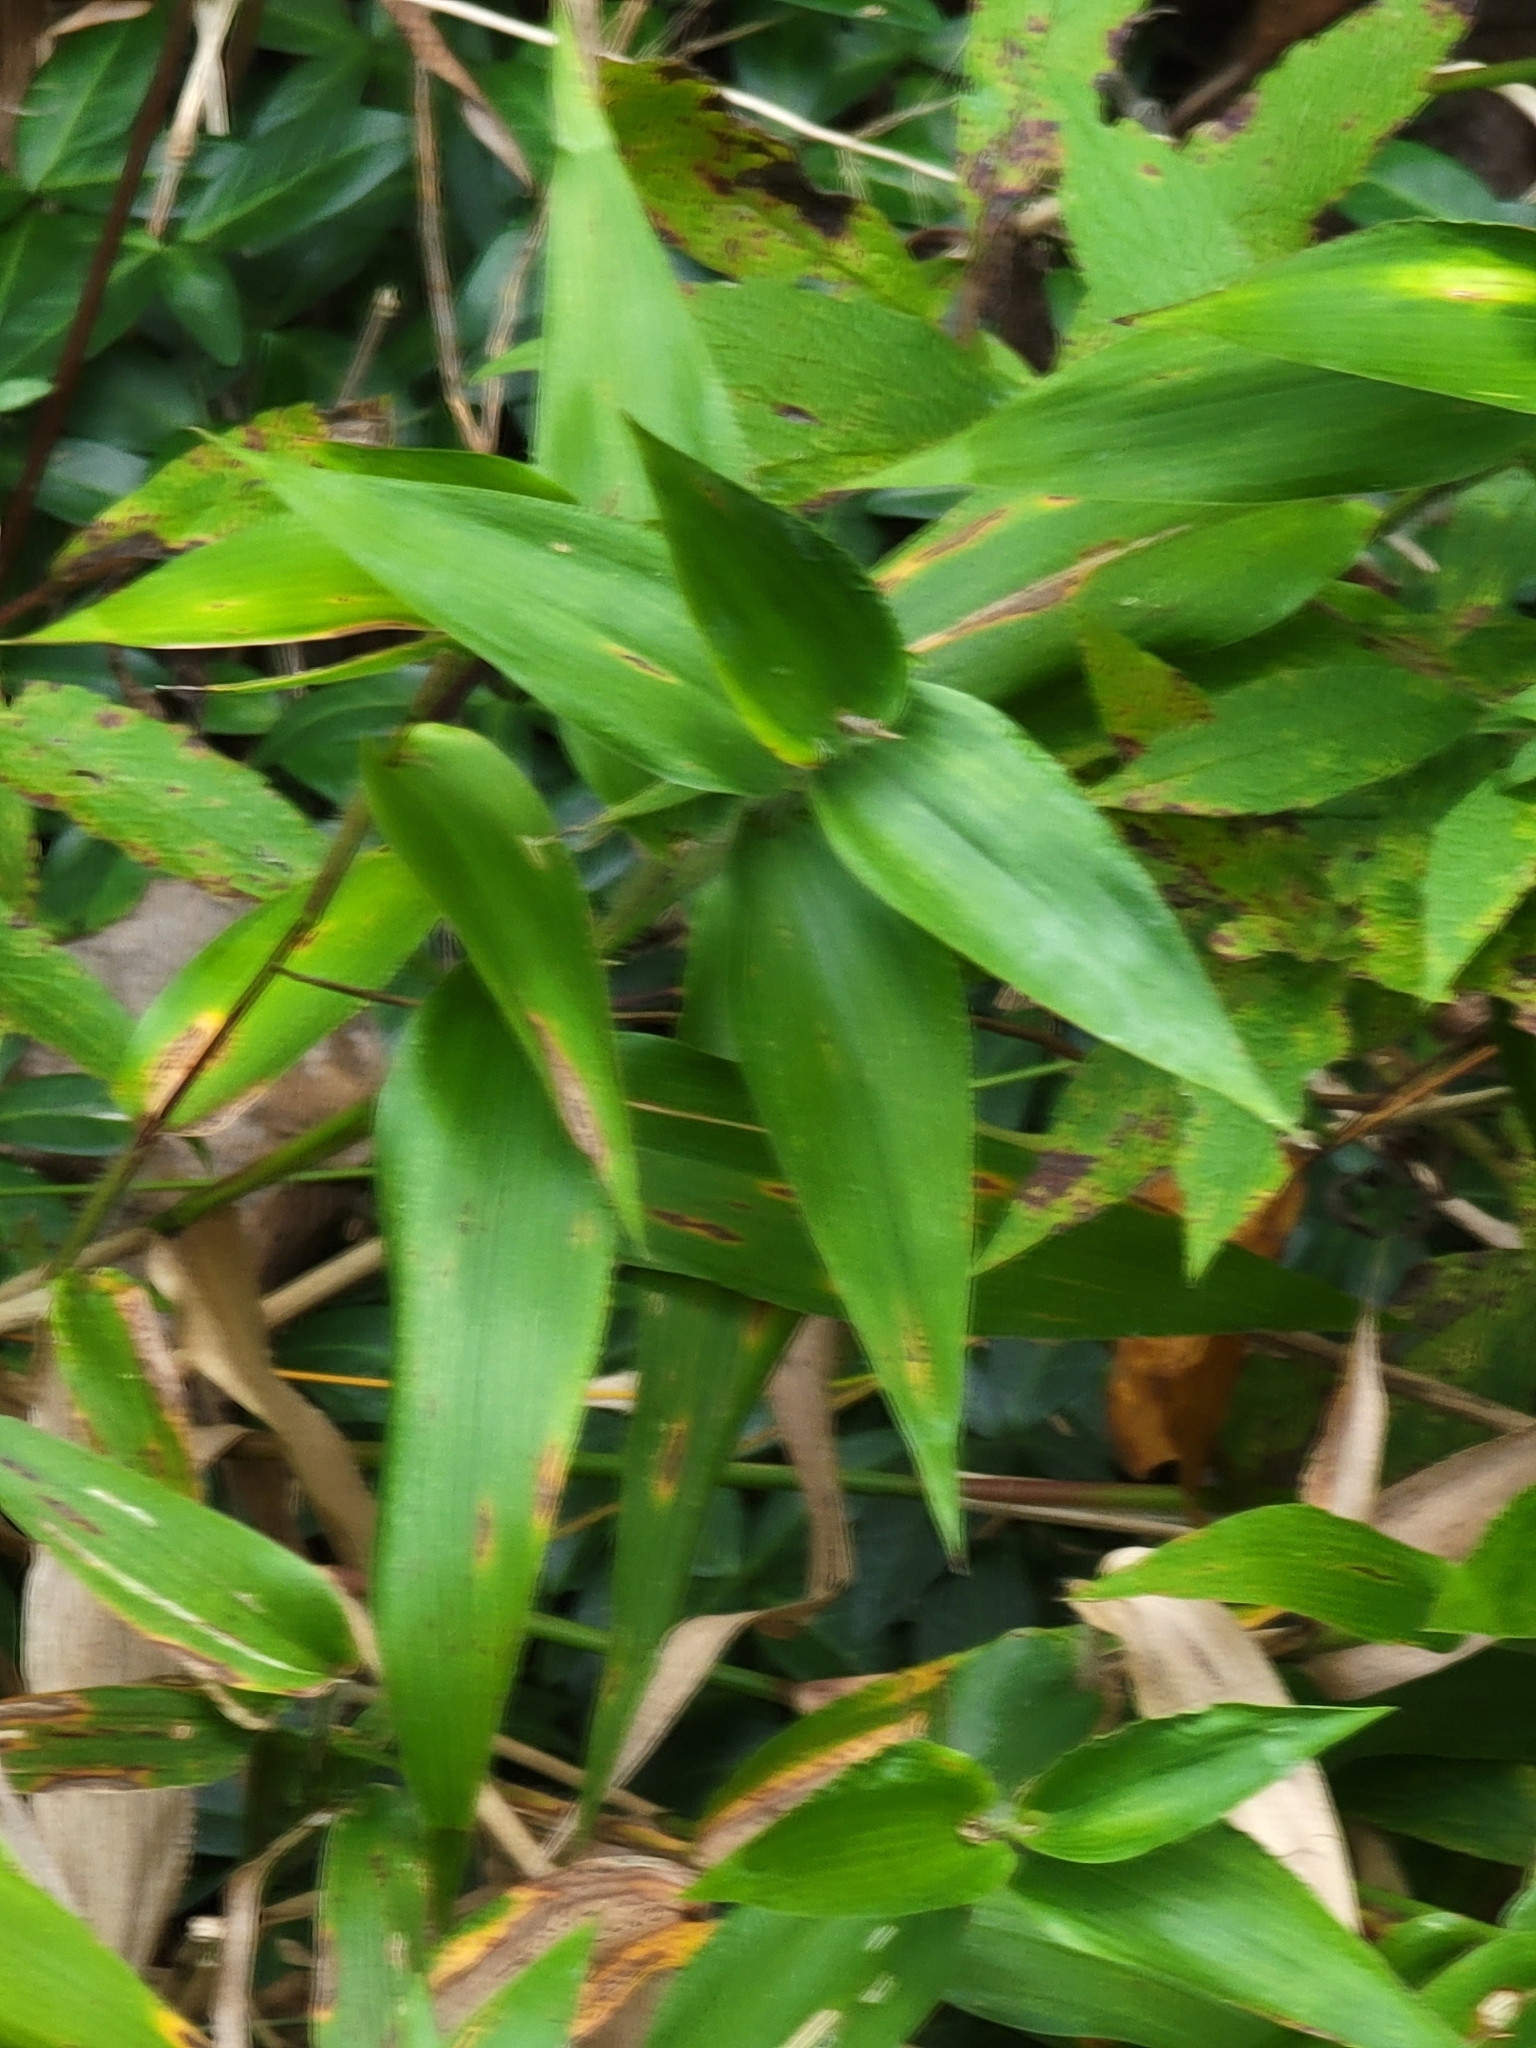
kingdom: Plantae
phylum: Tracheophyta
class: Liliopsida
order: Poales
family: Poaceae
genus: Dichanthelium
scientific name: Dichanthelium clandestinum
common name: Deer-tongue grass
